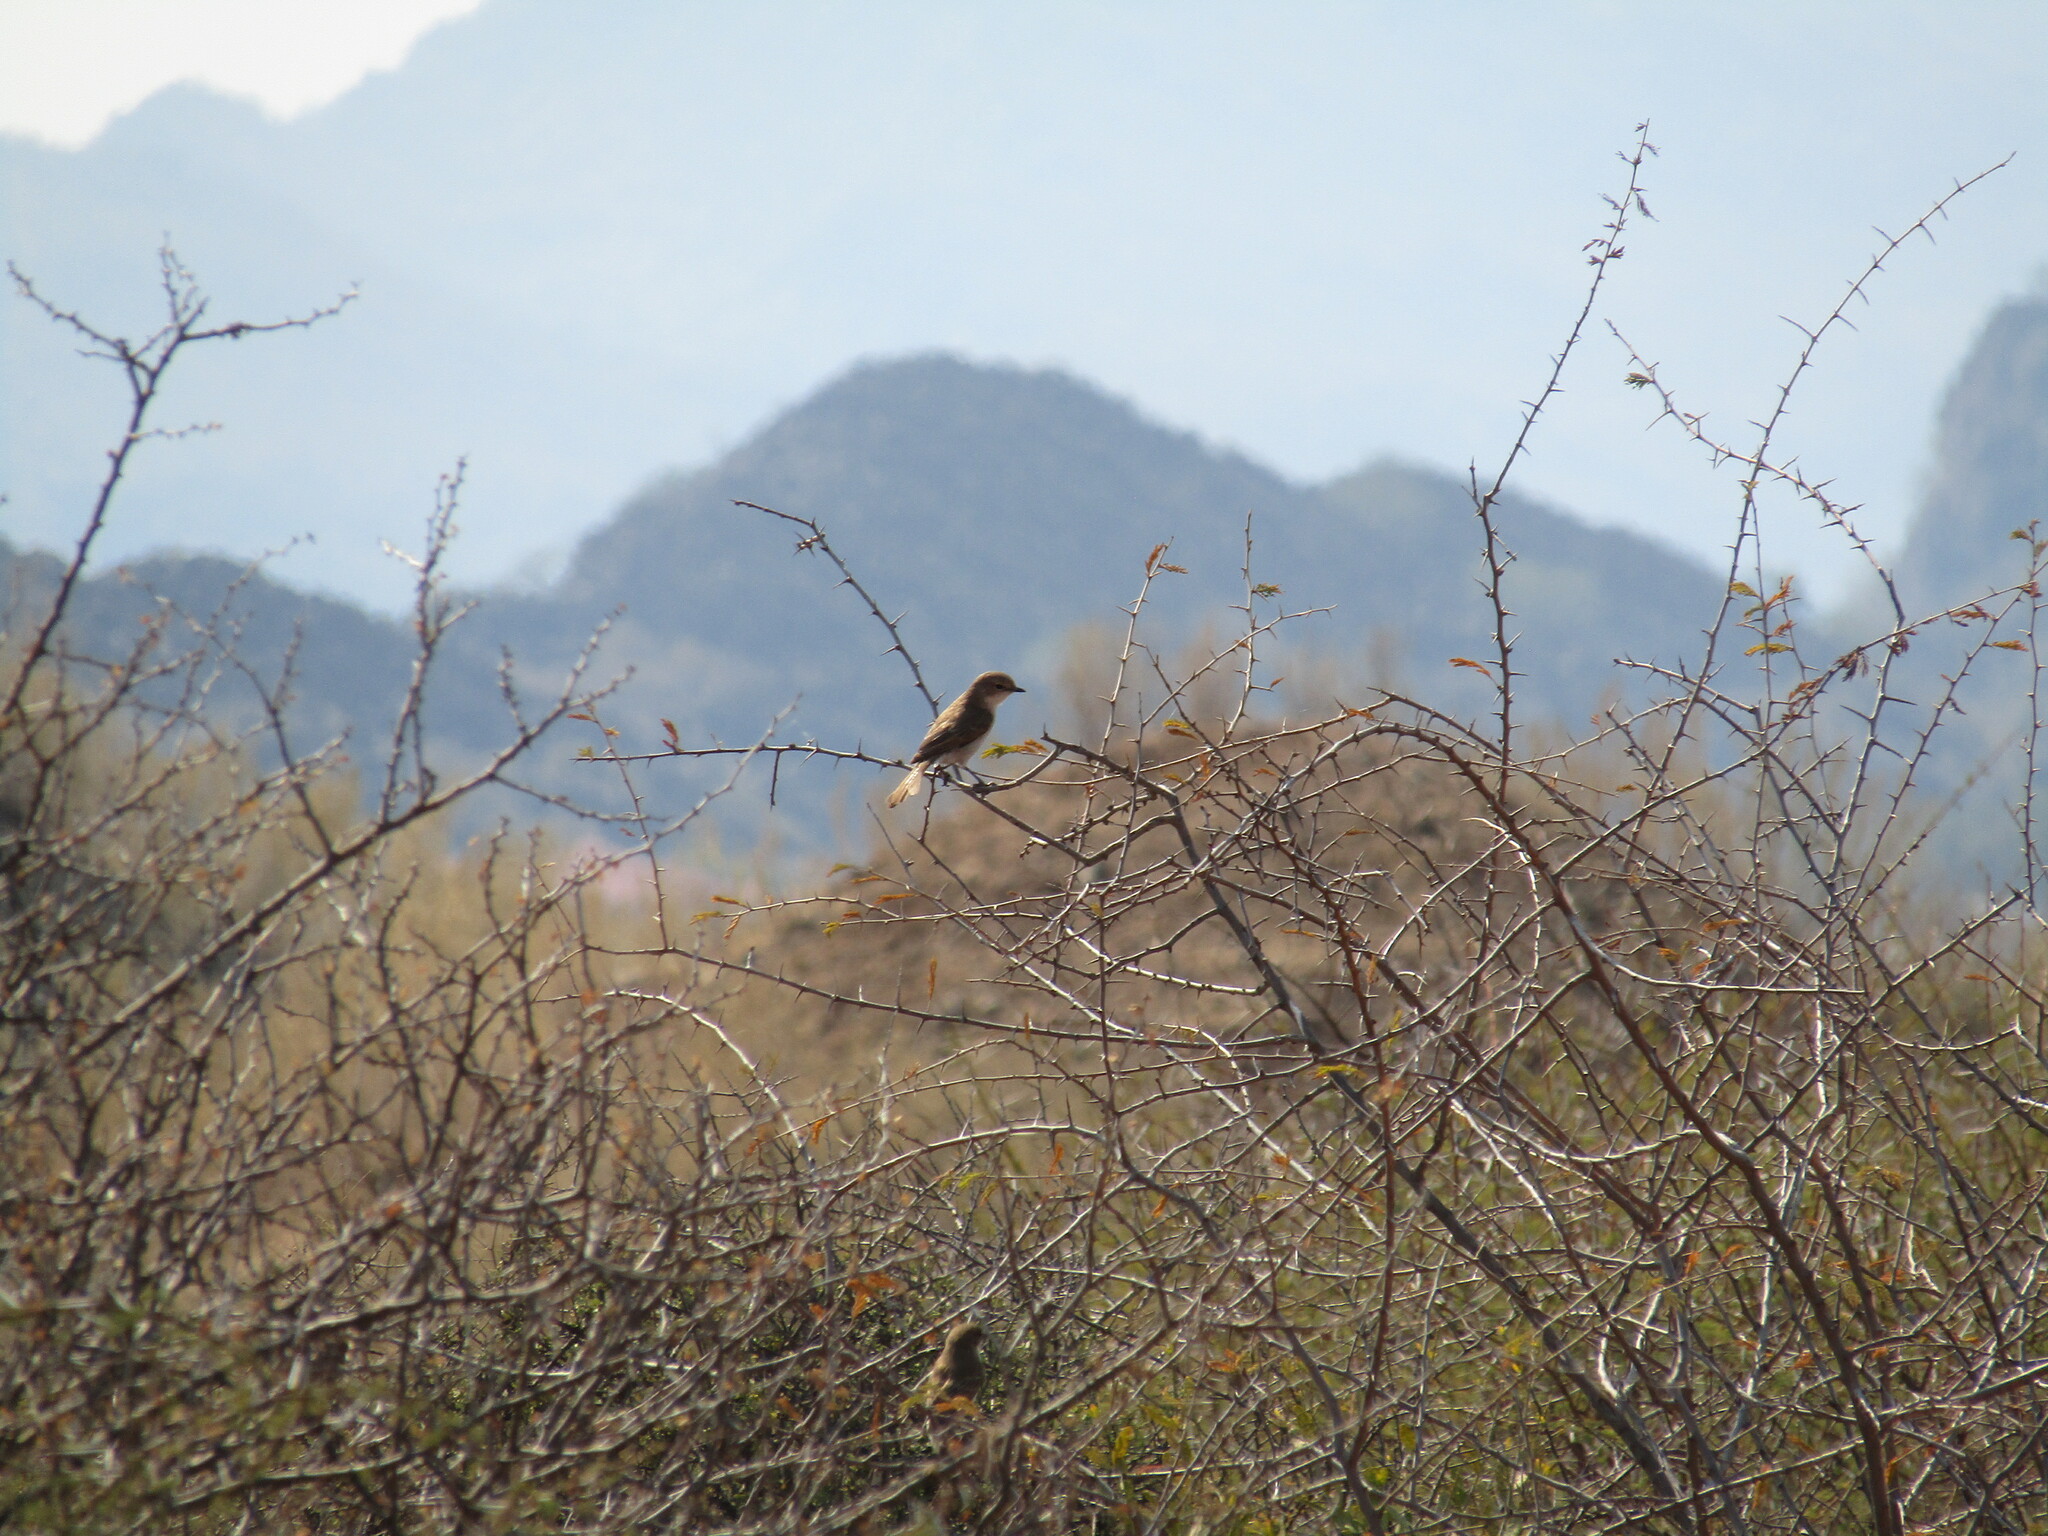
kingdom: Animalia
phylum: Chordata
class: Aves
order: Passeriformes
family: Muscicapidae
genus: Bradornis
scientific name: Bradornis mariquensis
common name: Marico flycatcher
